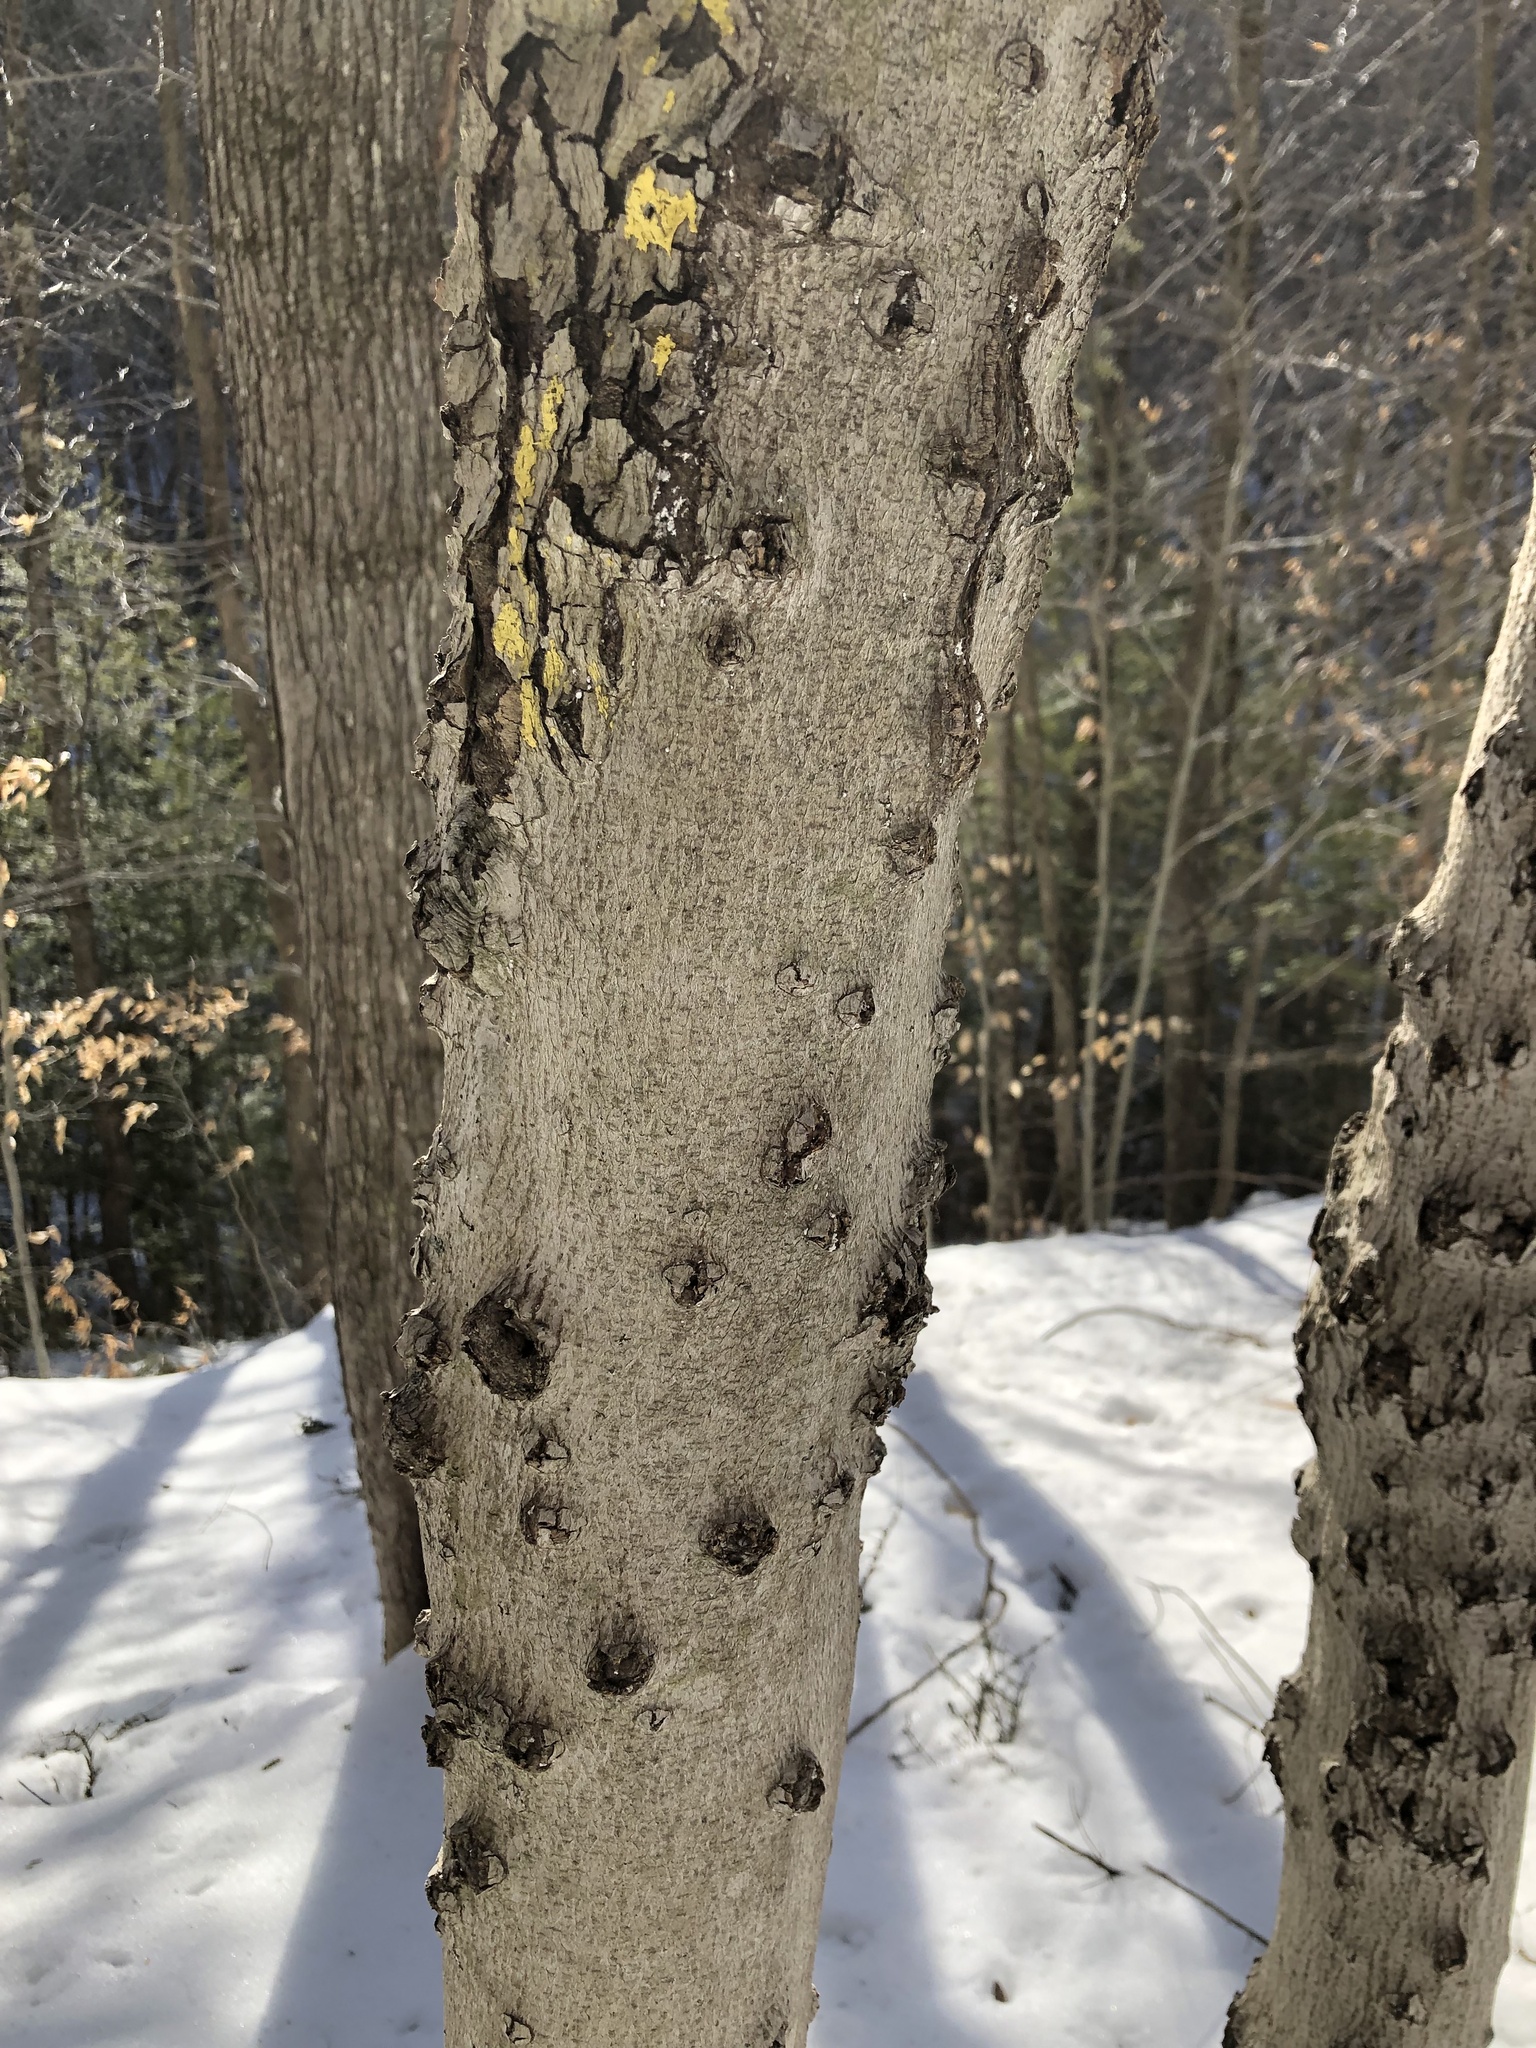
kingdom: Fungi
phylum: Ascomycota
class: Sordariomycetes
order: Hypocreales
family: Nectriaceae
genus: Neonectria
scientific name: Neonectria faginata
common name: Beech bark canker
